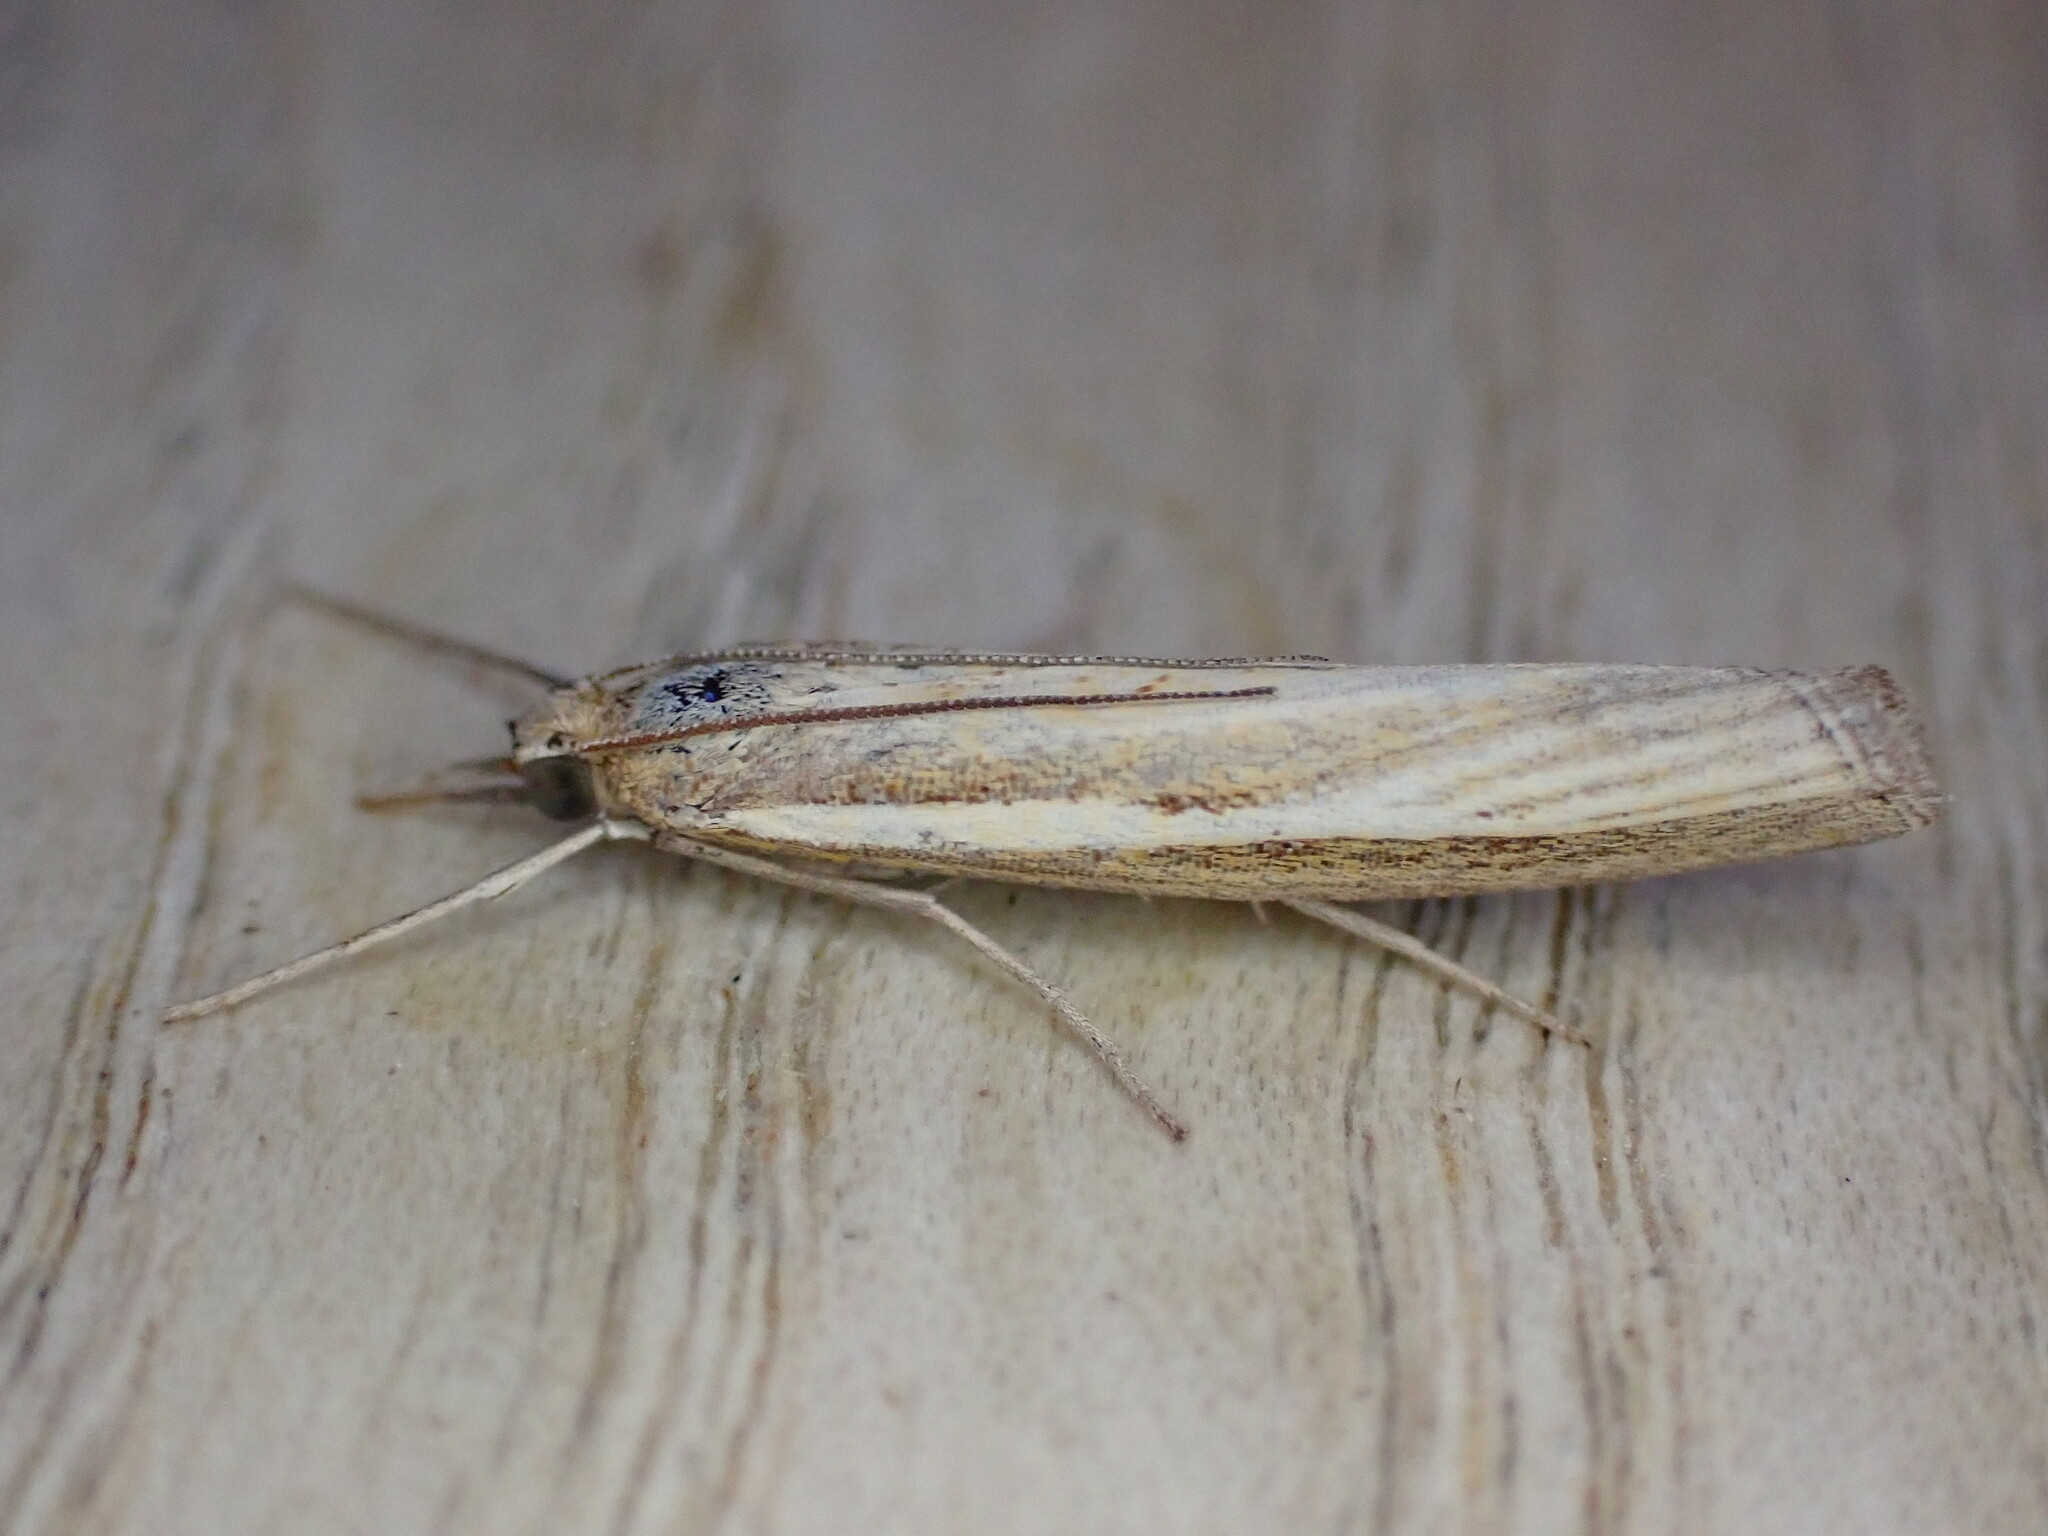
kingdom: Animalia
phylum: Arthropoda
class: Insecta
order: Lepidoptera
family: Crambidae
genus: Agriphila
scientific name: Agriphila tristellus
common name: Common grass-veneer
